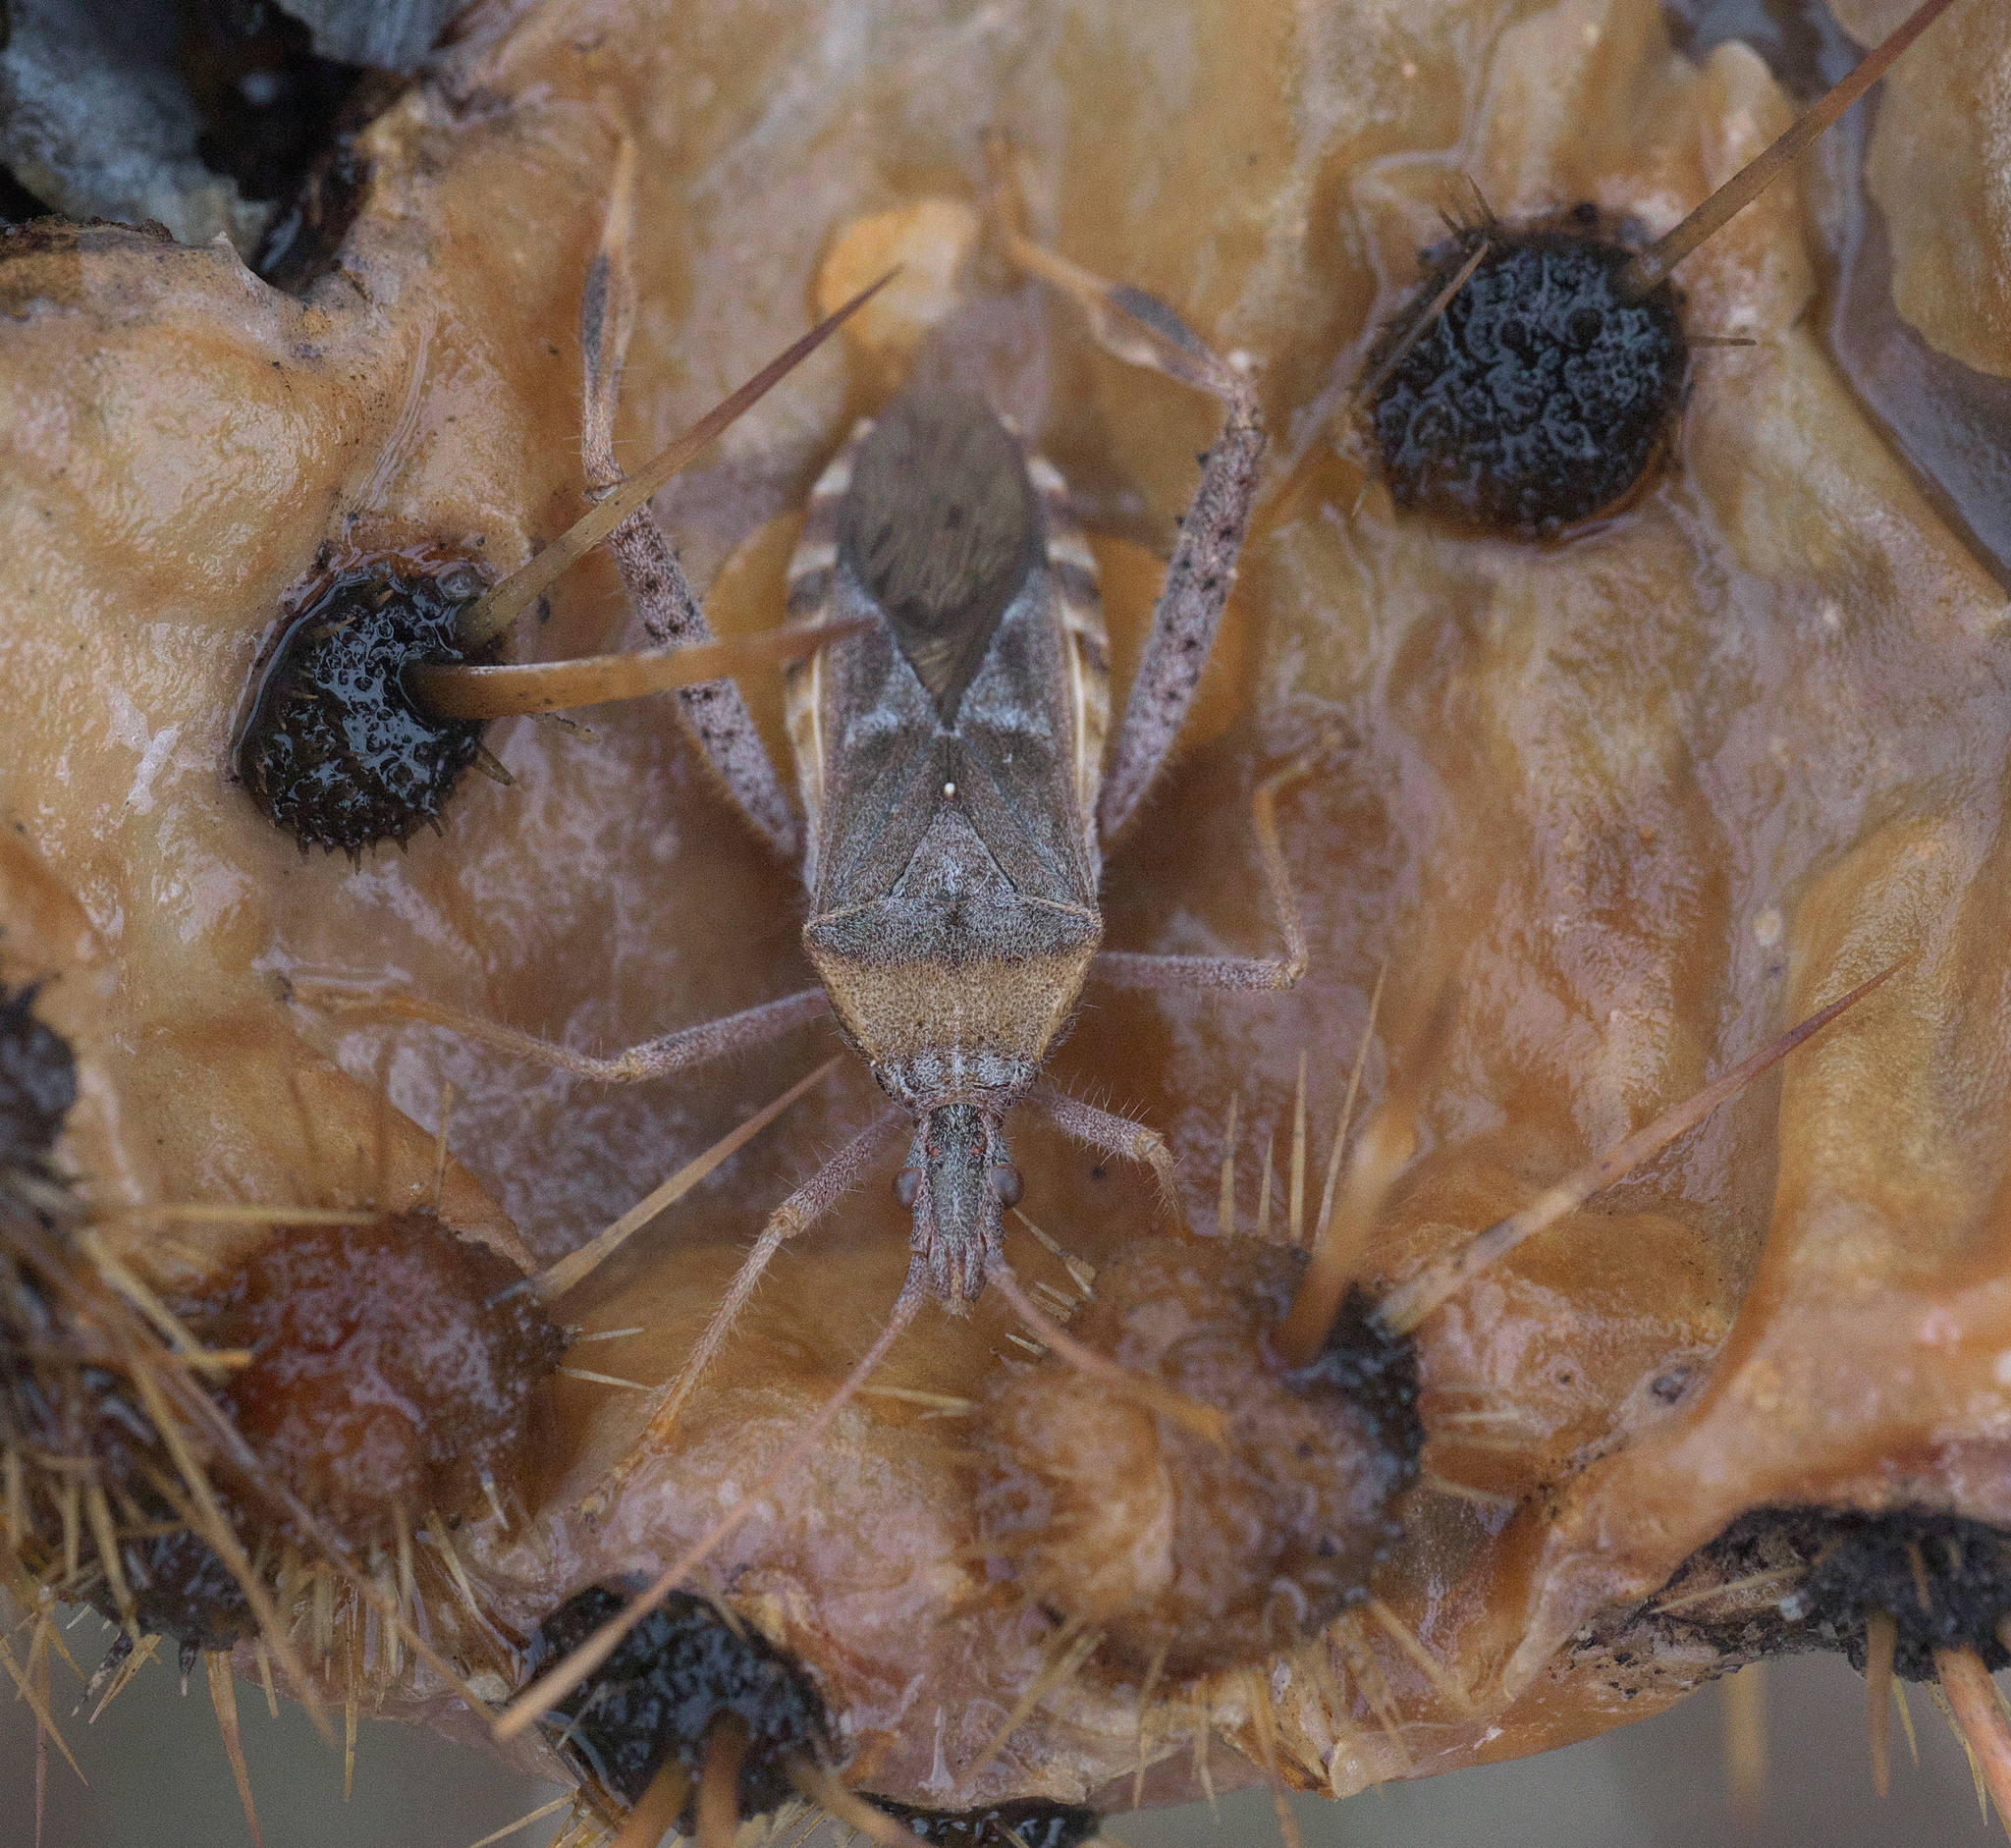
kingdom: Animalia
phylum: Arthropoda
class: Insecta
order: Hemiptera
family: Coreidae
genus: Narnia
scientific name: Narnia femorata
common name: Leaf-footed cactus bug
